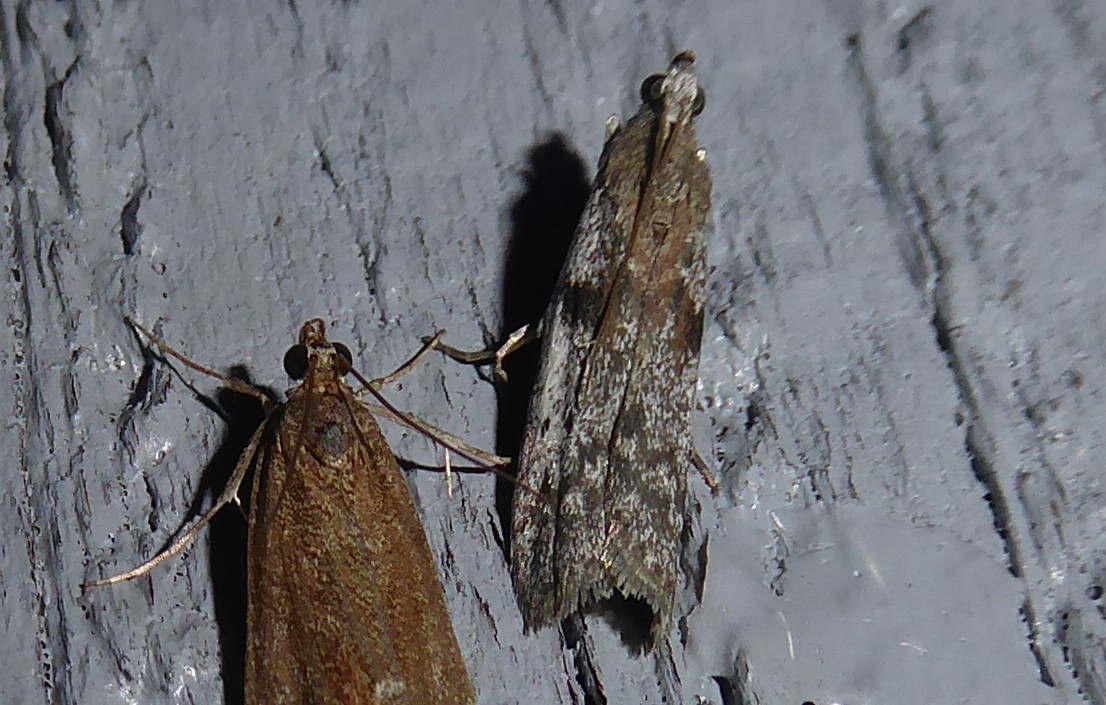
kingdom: Animalia
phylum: Arthropoda
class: Insecta
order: Lepidoptera
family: Pyralidae
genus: Patagoniodes
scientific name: Patagoniodes farinaria
